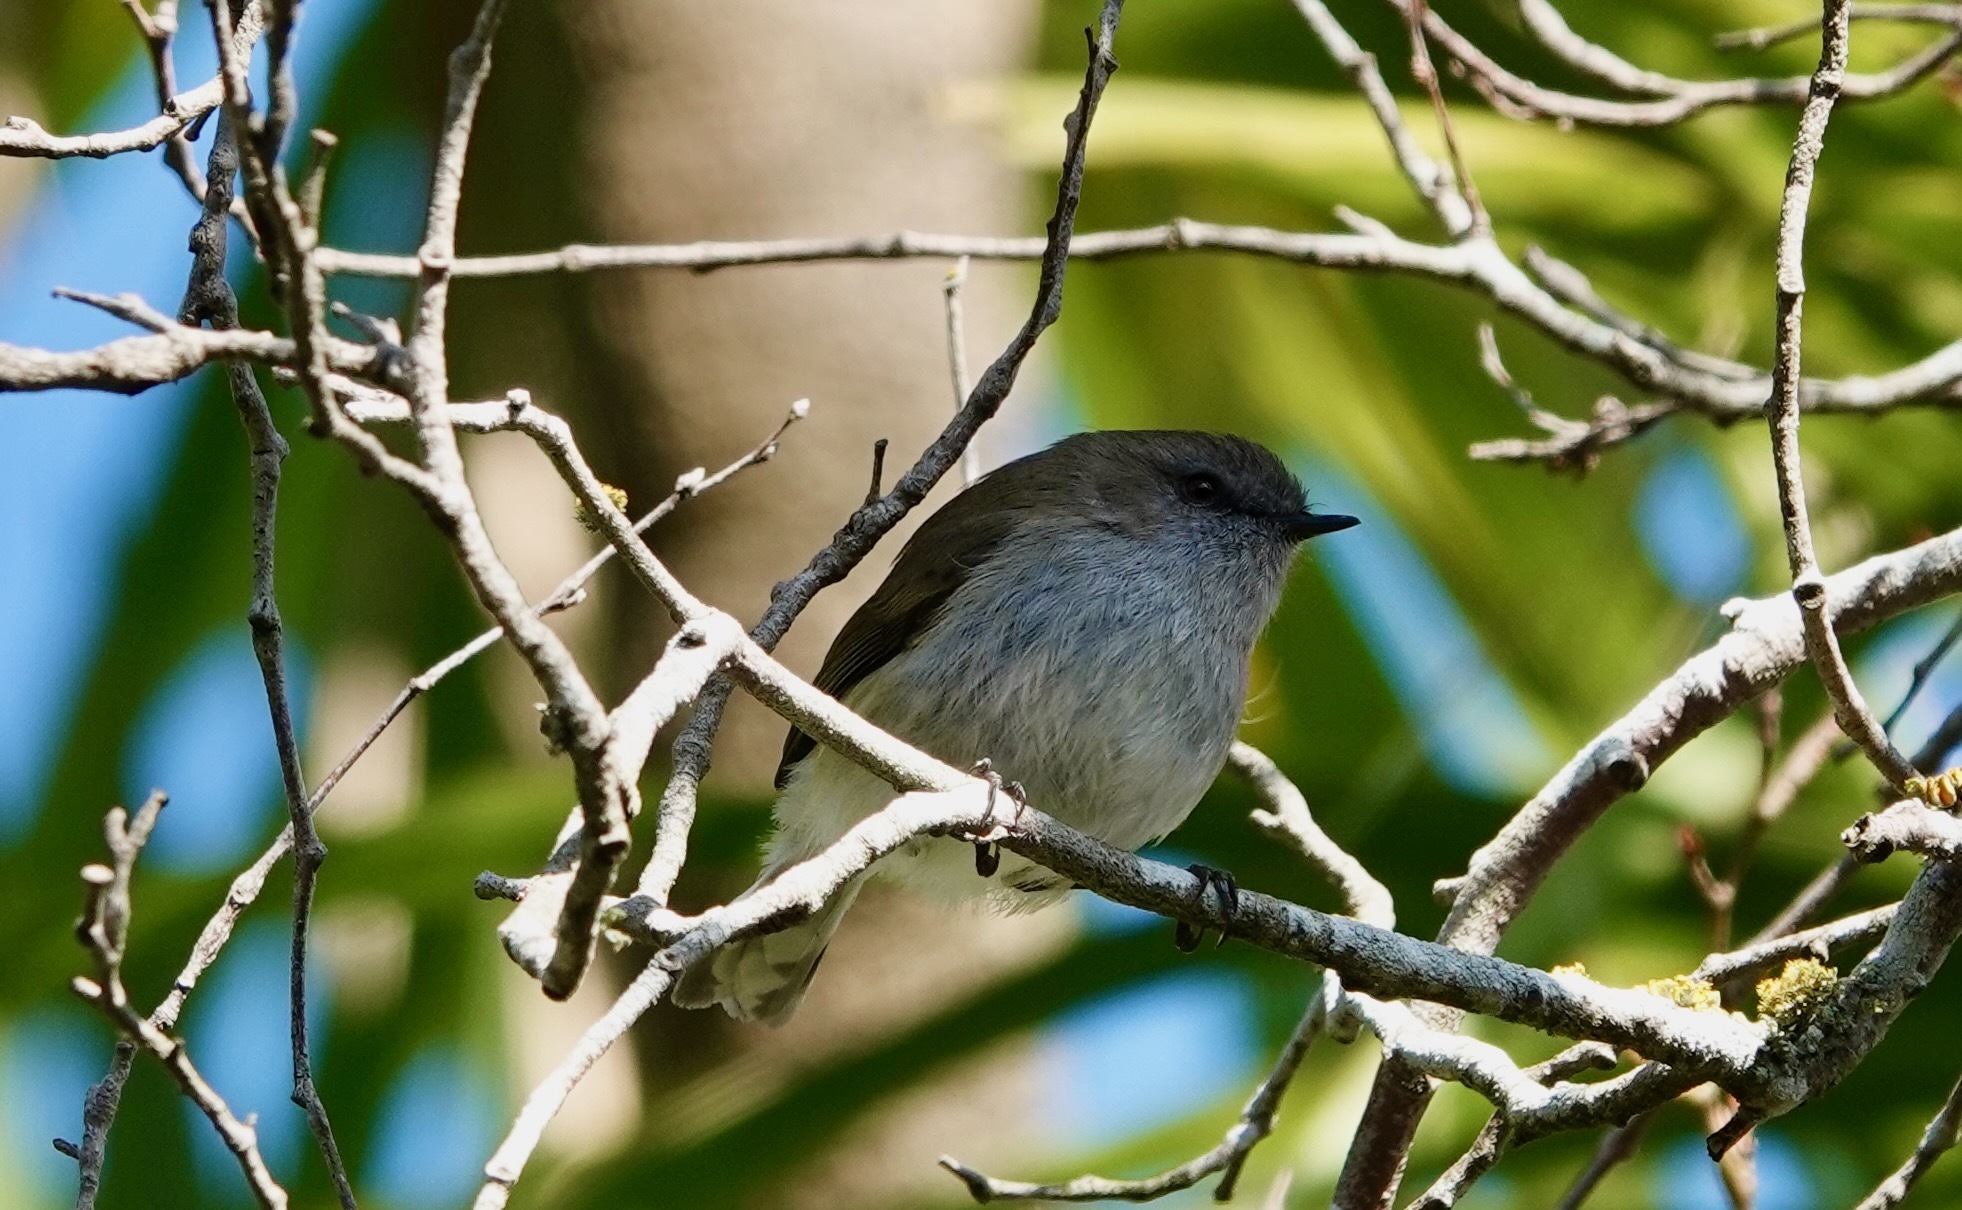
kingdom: Animalia
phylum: Chordata
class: Aves
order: Passeriformes
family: Acanthizidae
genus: Gerygone
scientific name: Gerygone igata
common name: Grey gerygone
